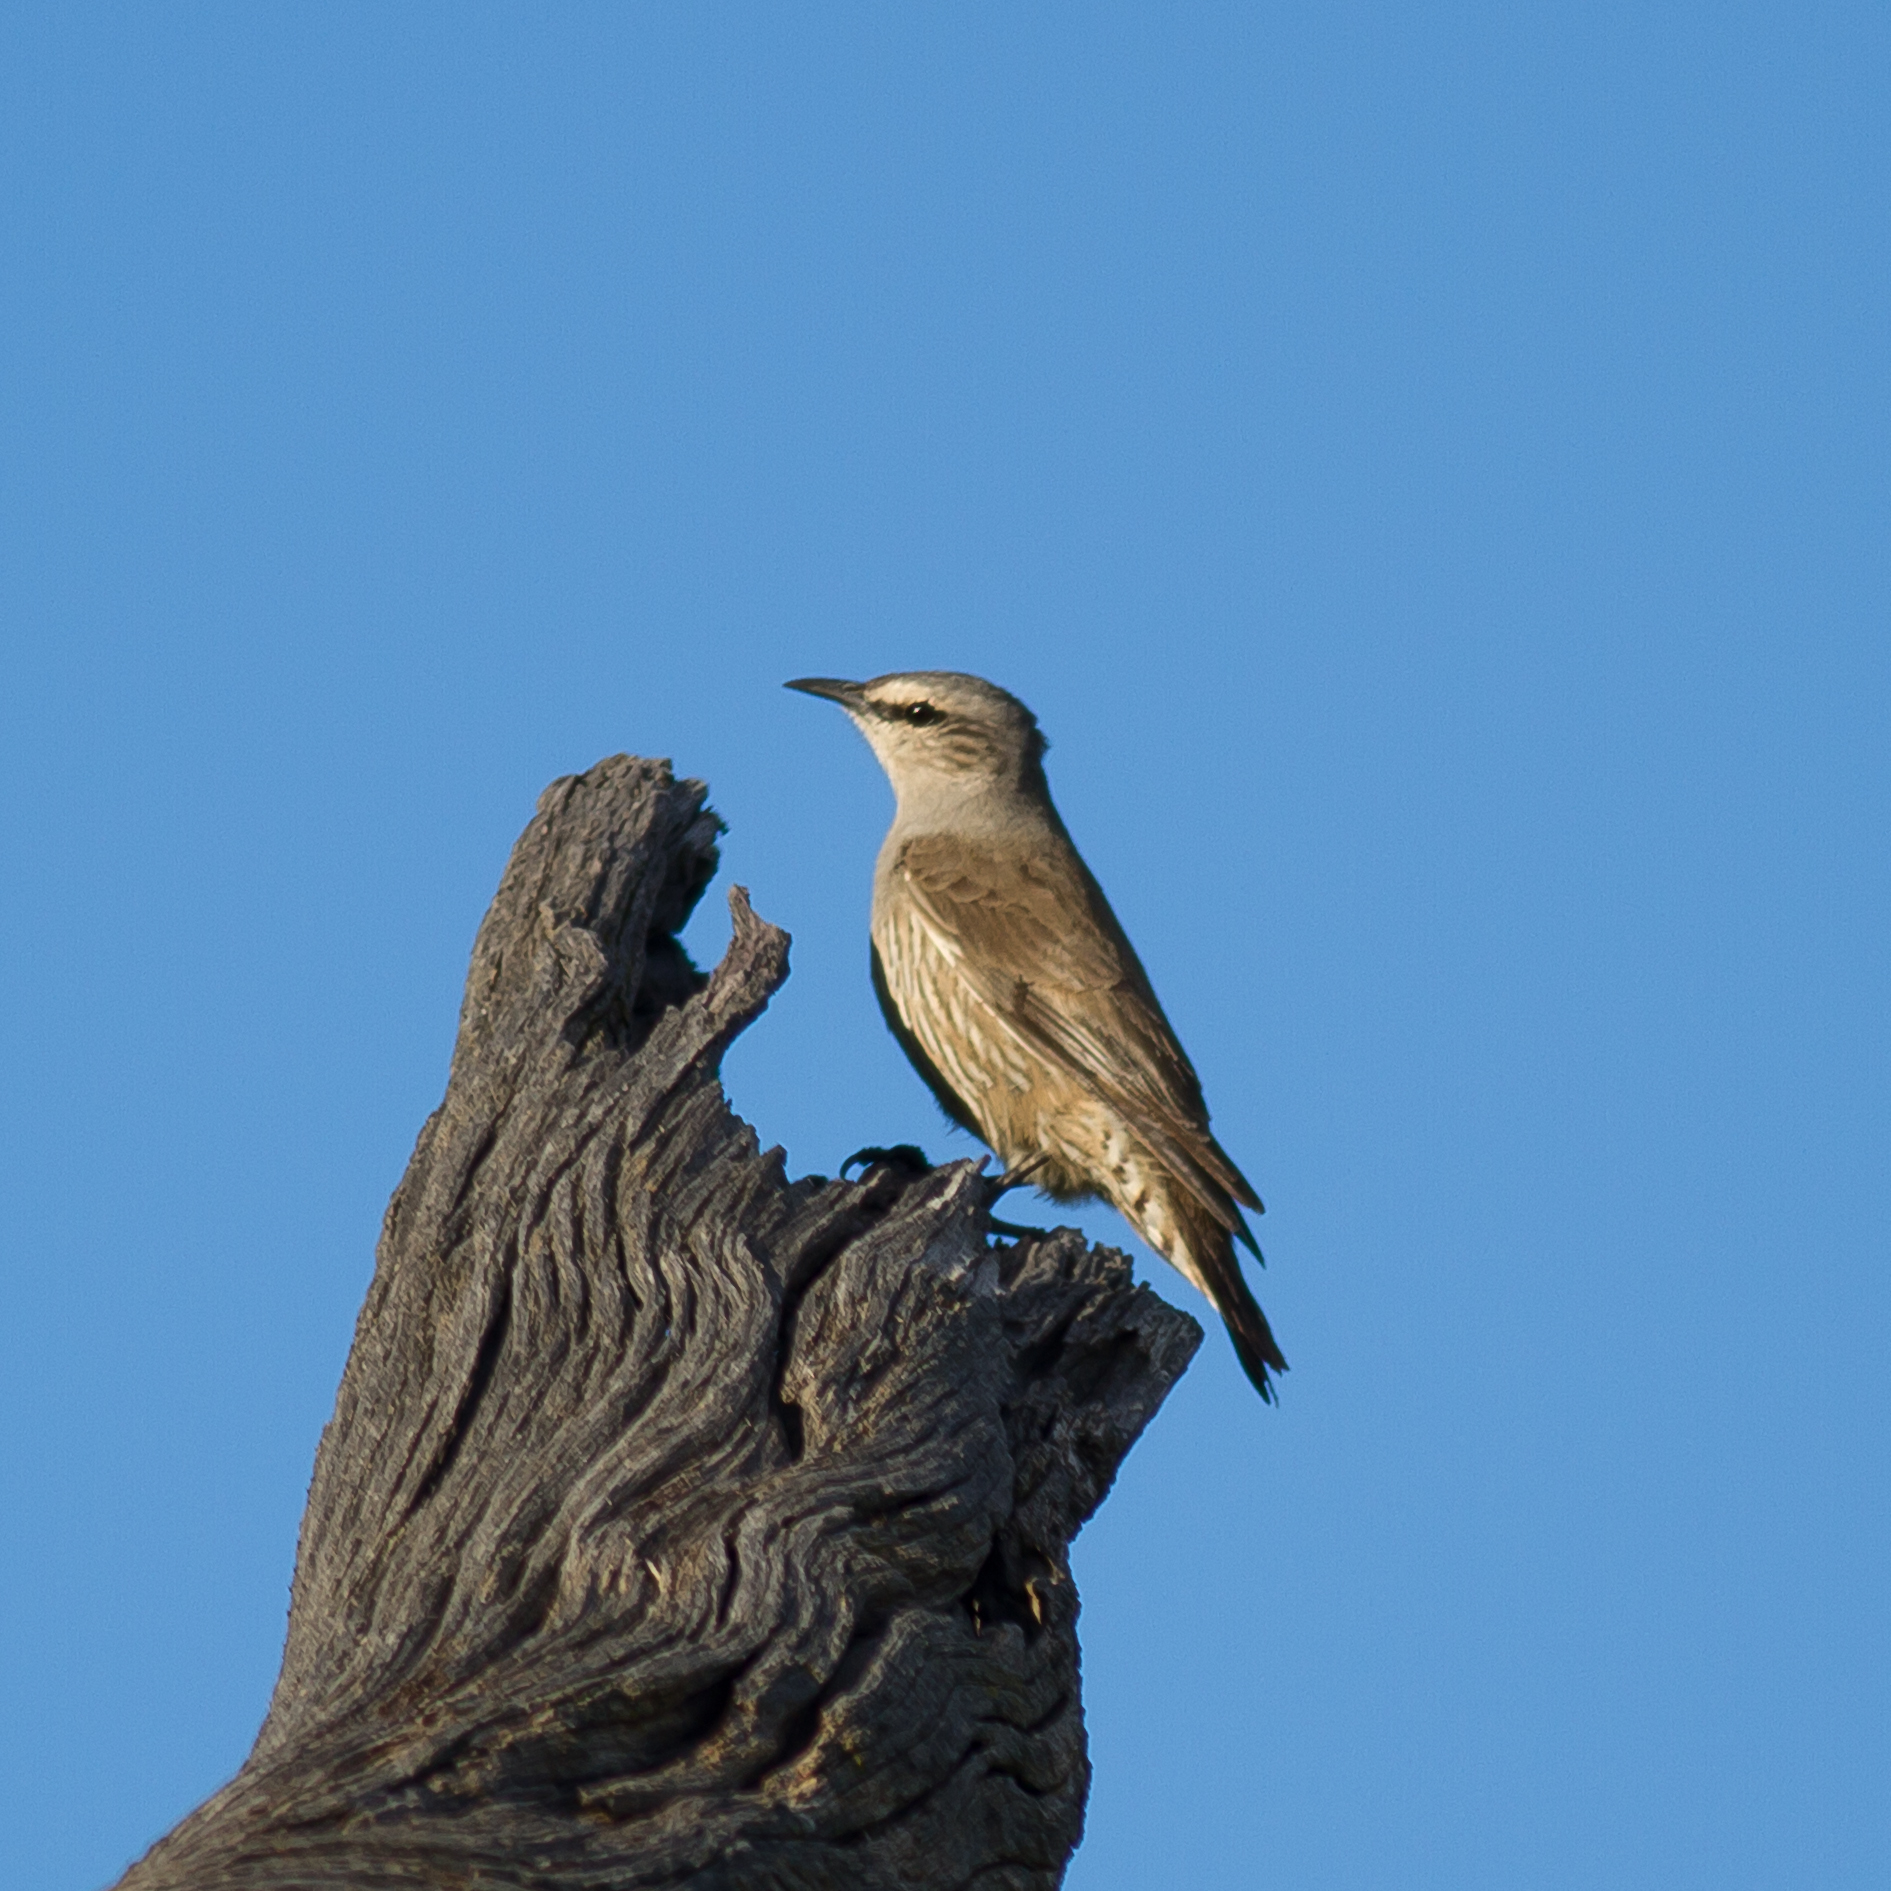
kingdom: Animalia
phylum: Chordata
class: Aves
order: Passeriformes
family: Climacteridae
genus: Climacteris
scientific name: Climacteris picumnus
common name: Brown treecreeper
